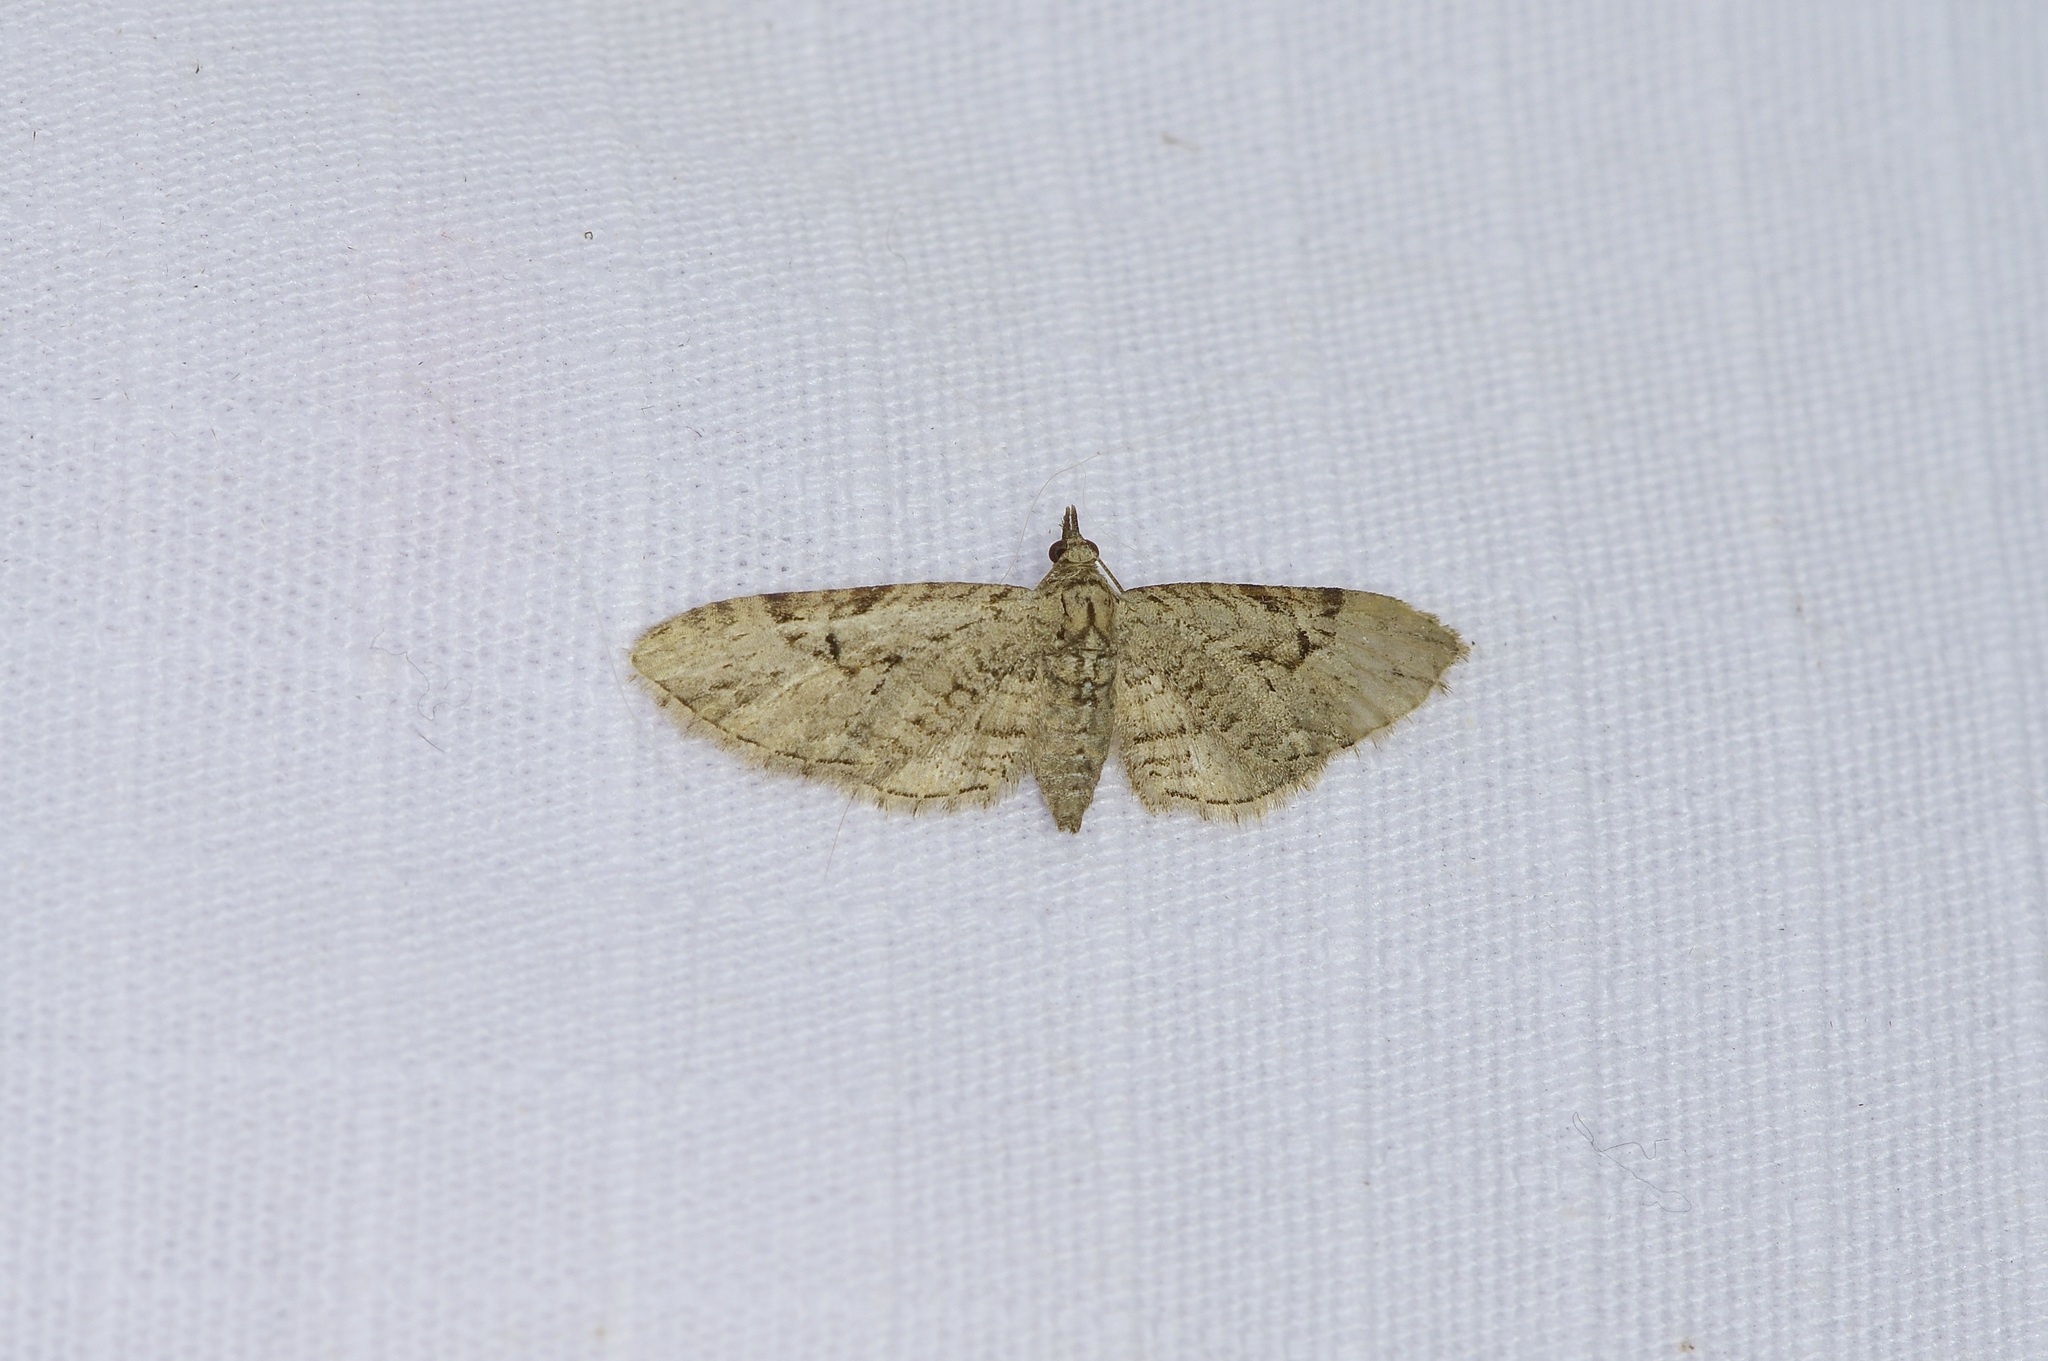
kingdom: Animalia
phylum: Arthropoda
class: Insecta
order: Lepidoptera
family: Geometridae
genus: Eupithecia
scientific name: Eupithecia bolterii
